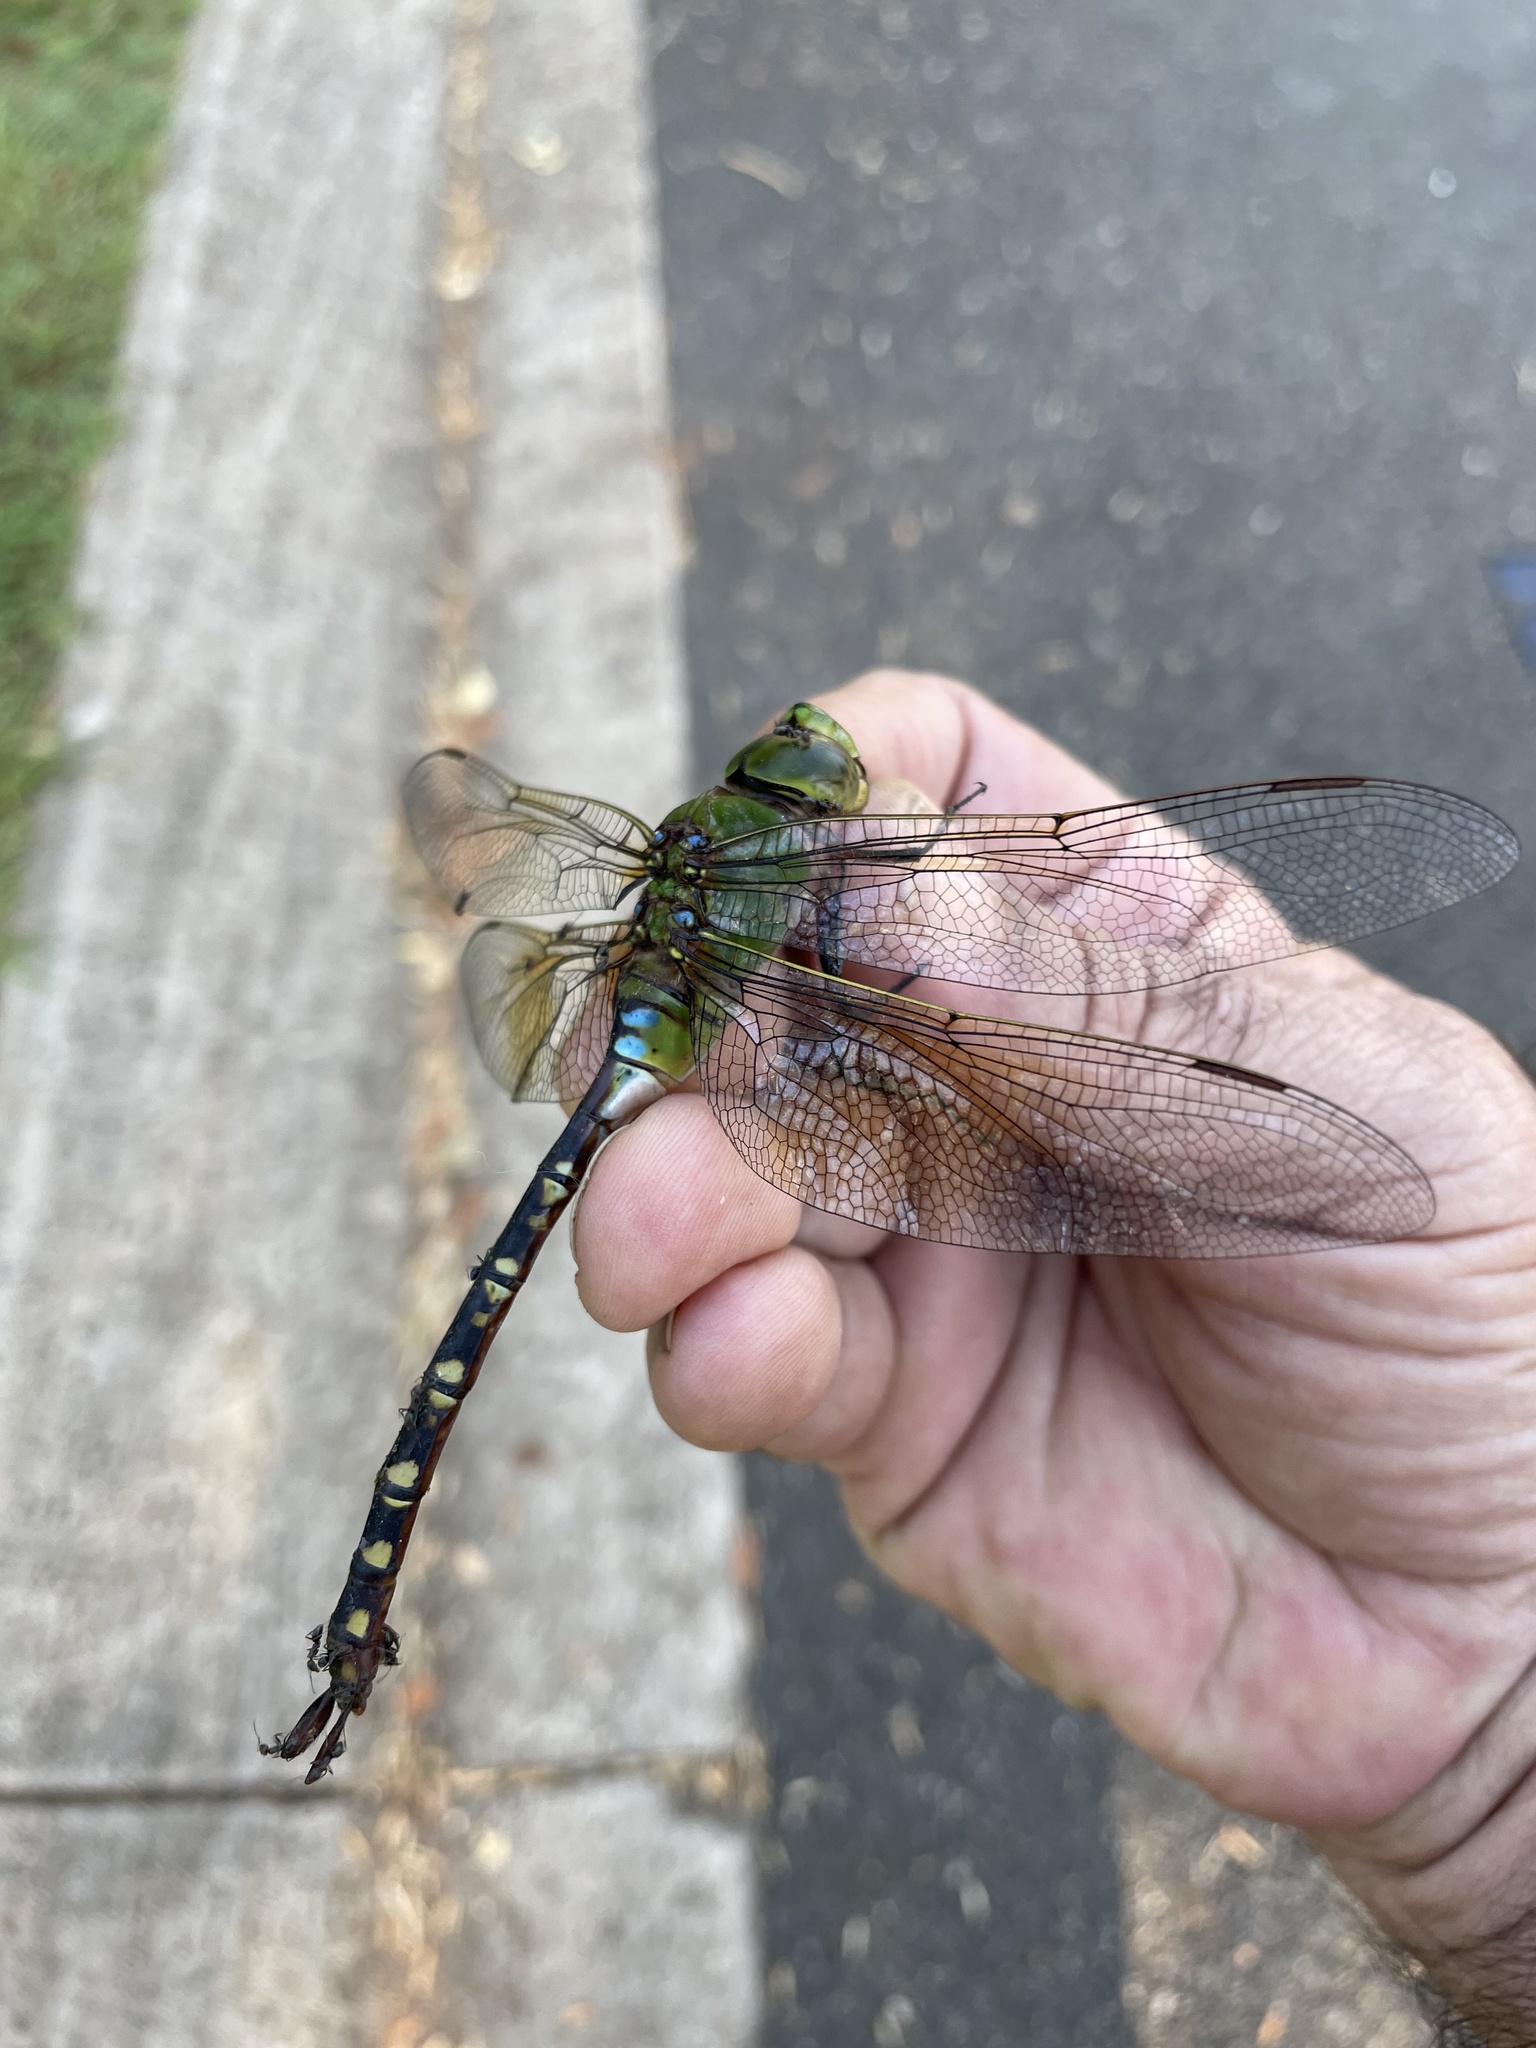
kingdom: Animalia
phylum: Arthropoda
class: Insecta
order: Odonata
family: Aeshnidae
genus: Anax
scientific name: Anax gibbosulus
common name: Green emperor
